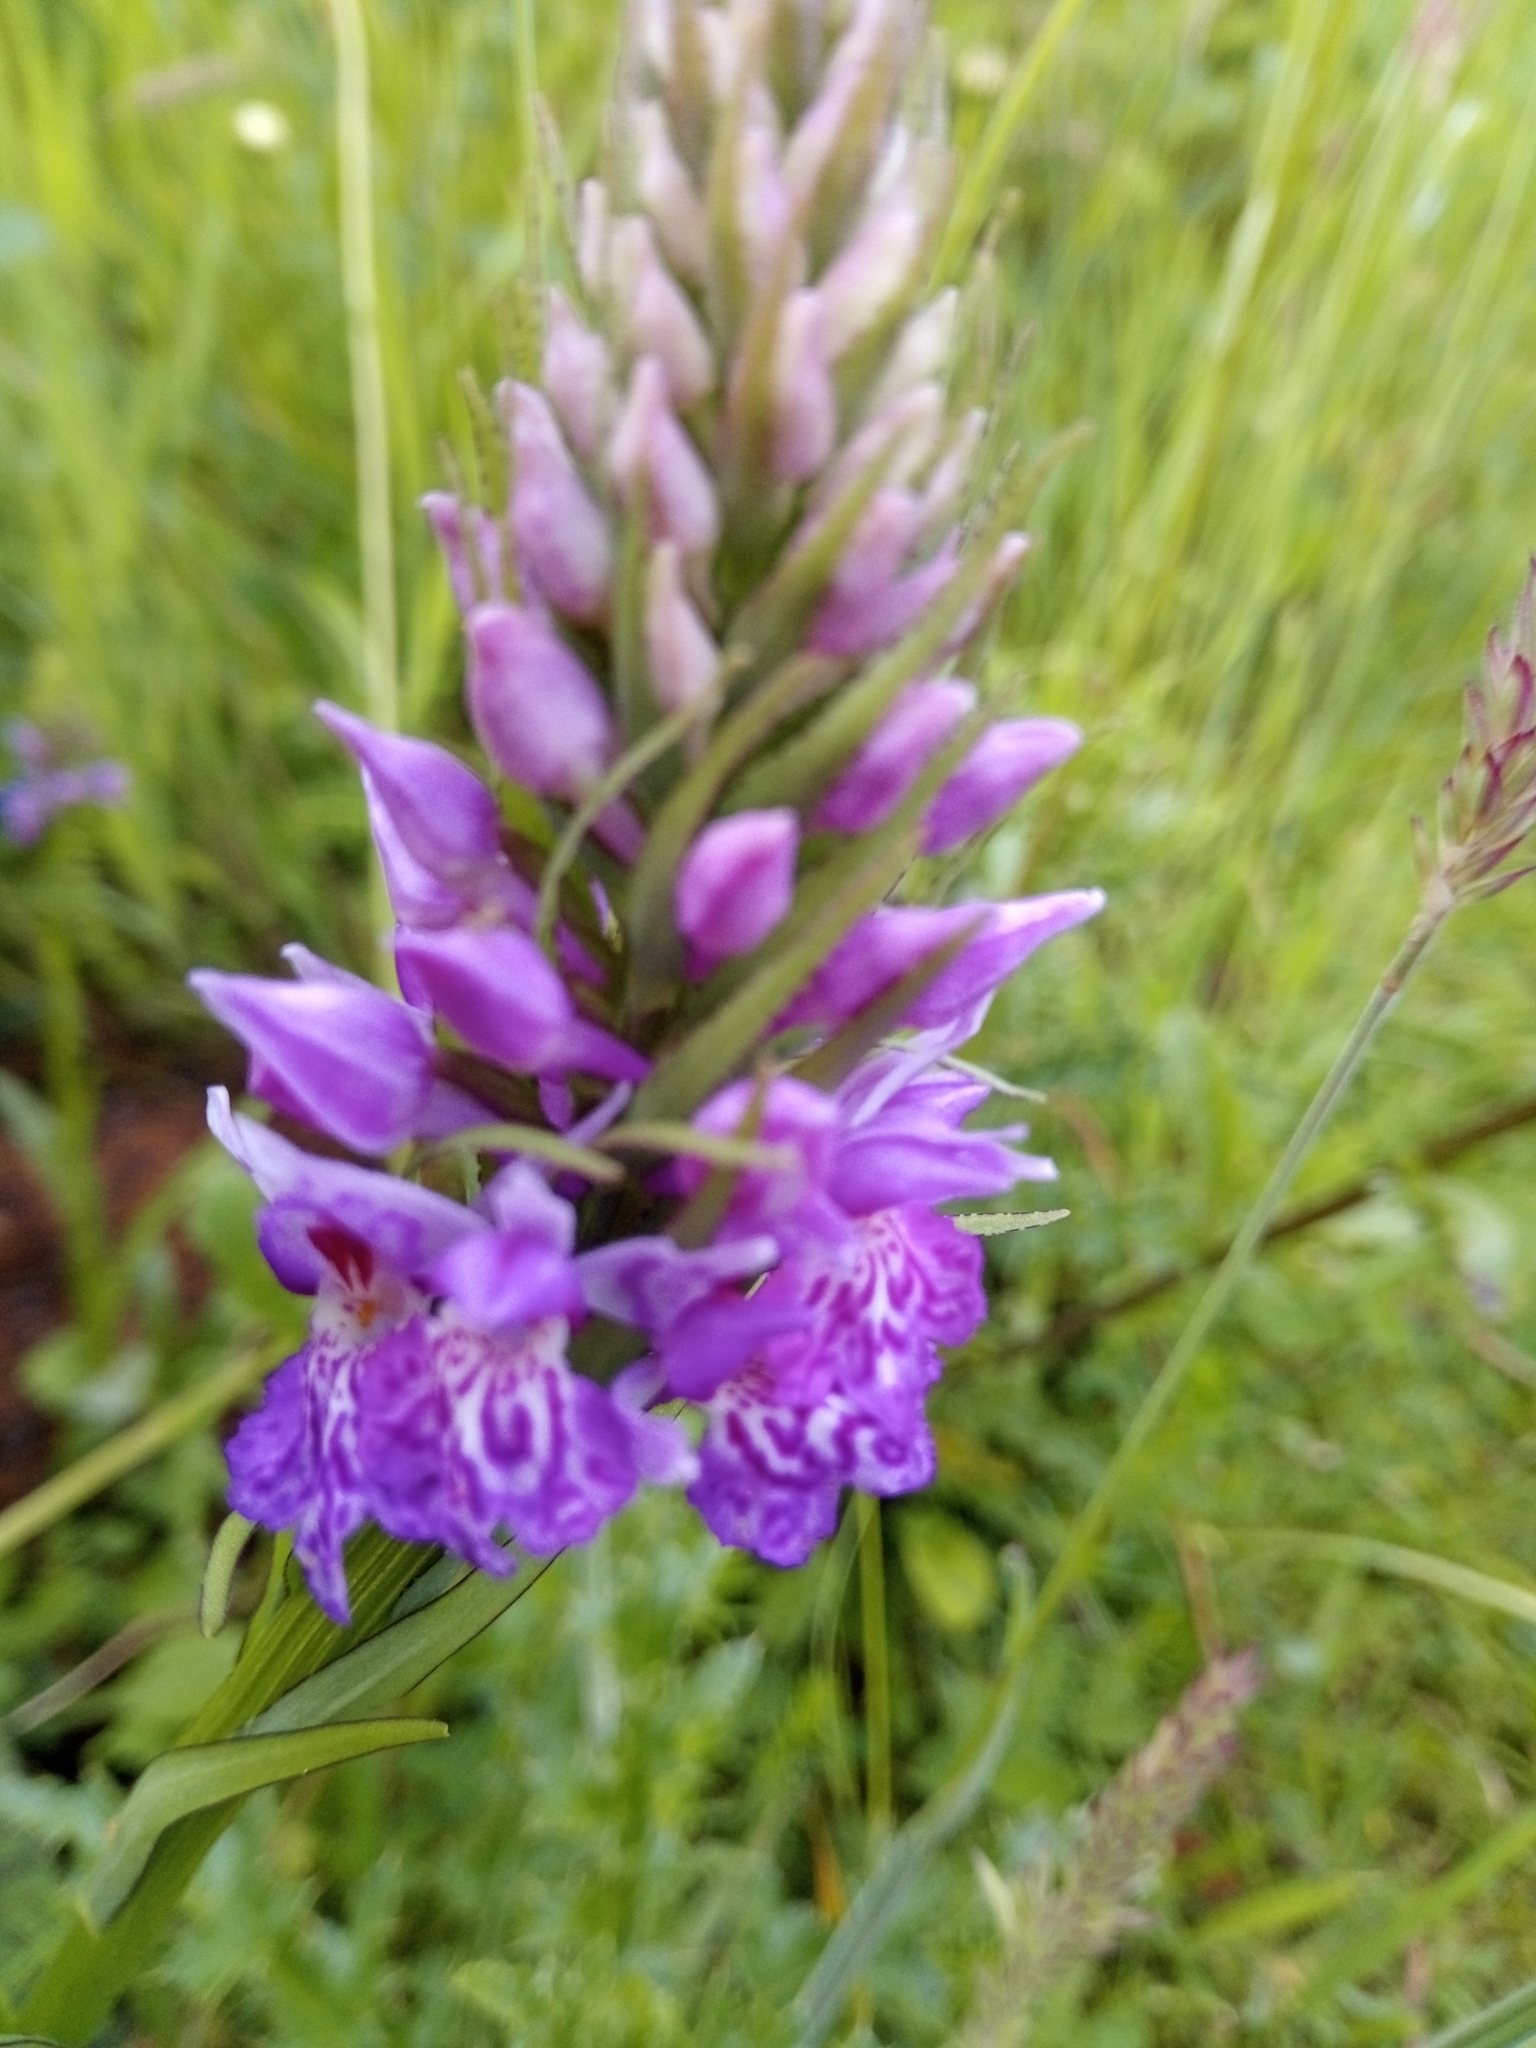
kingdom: Plantae
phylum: Tracheophyta
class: Liliopsida
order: Asparagales
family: Orchidaceae
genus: Dactylorhiza
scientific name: Dactylorhiza maculata
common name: Heath spotted-orchid
